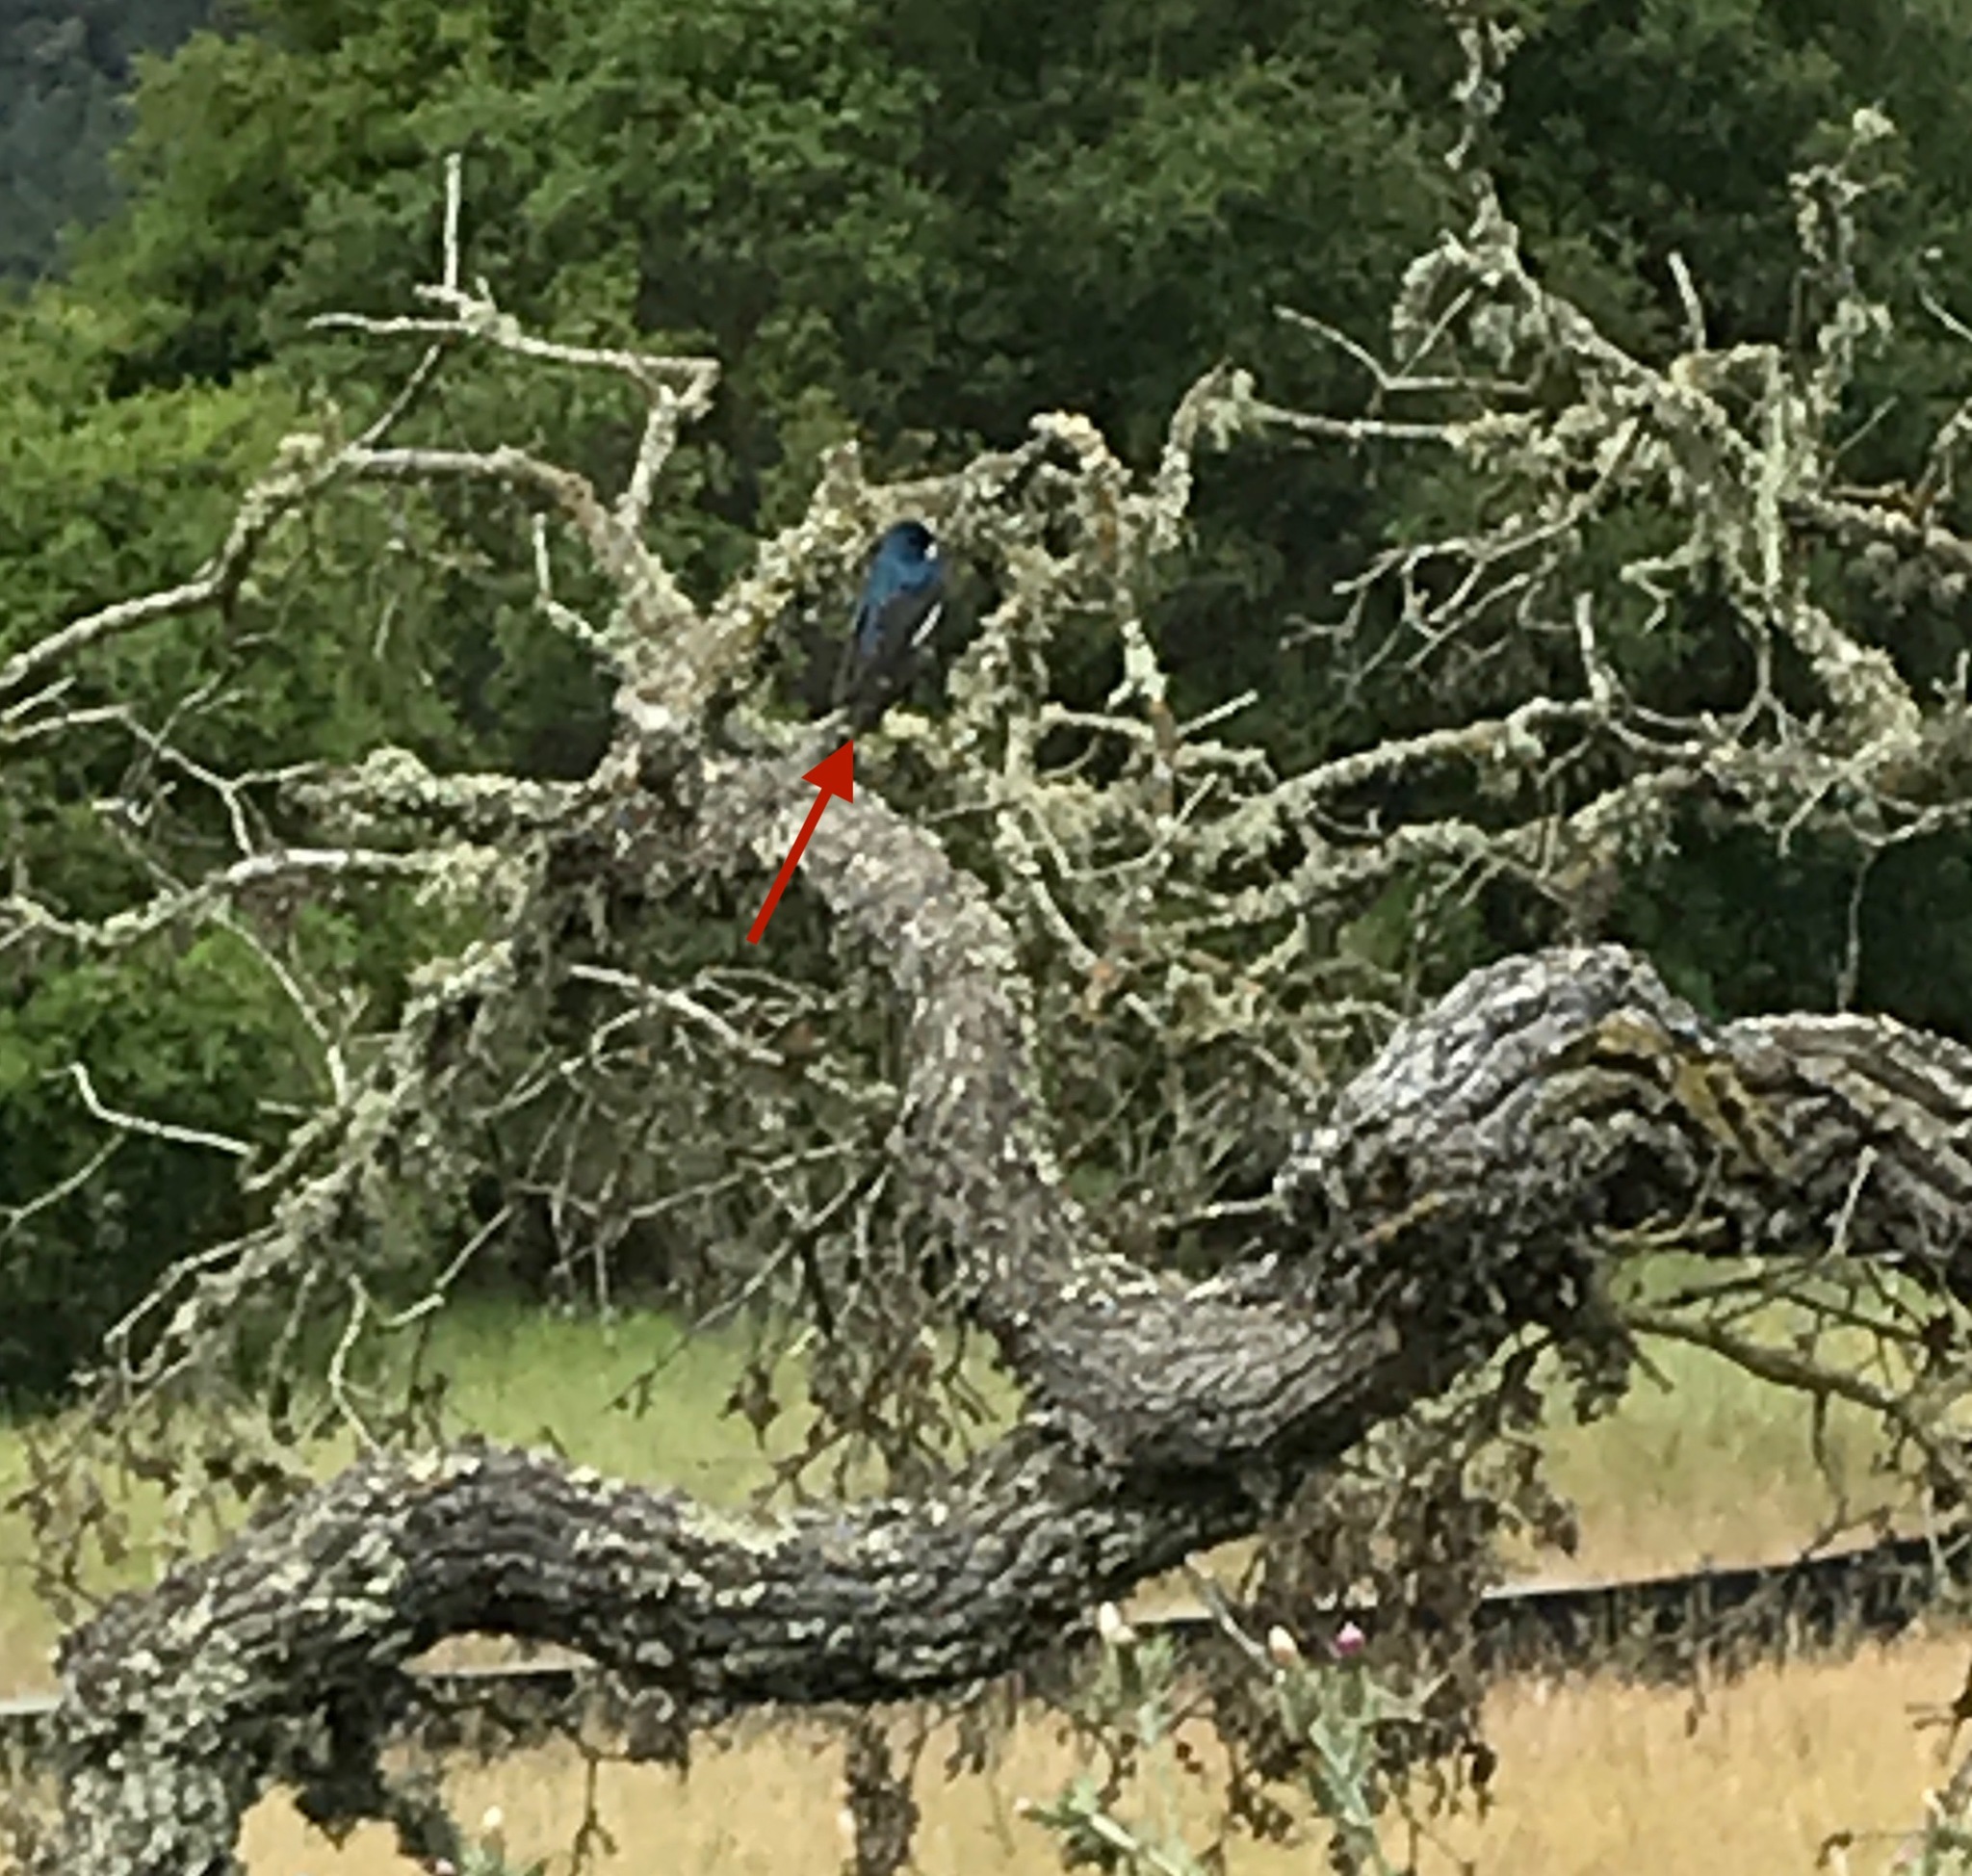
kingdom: Animalia
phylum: Chordata
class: Aves
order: Passeriformes
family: Hirundinidae
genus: Tachycineta
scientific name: Tachycineta bicolor
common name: Tree swallow
